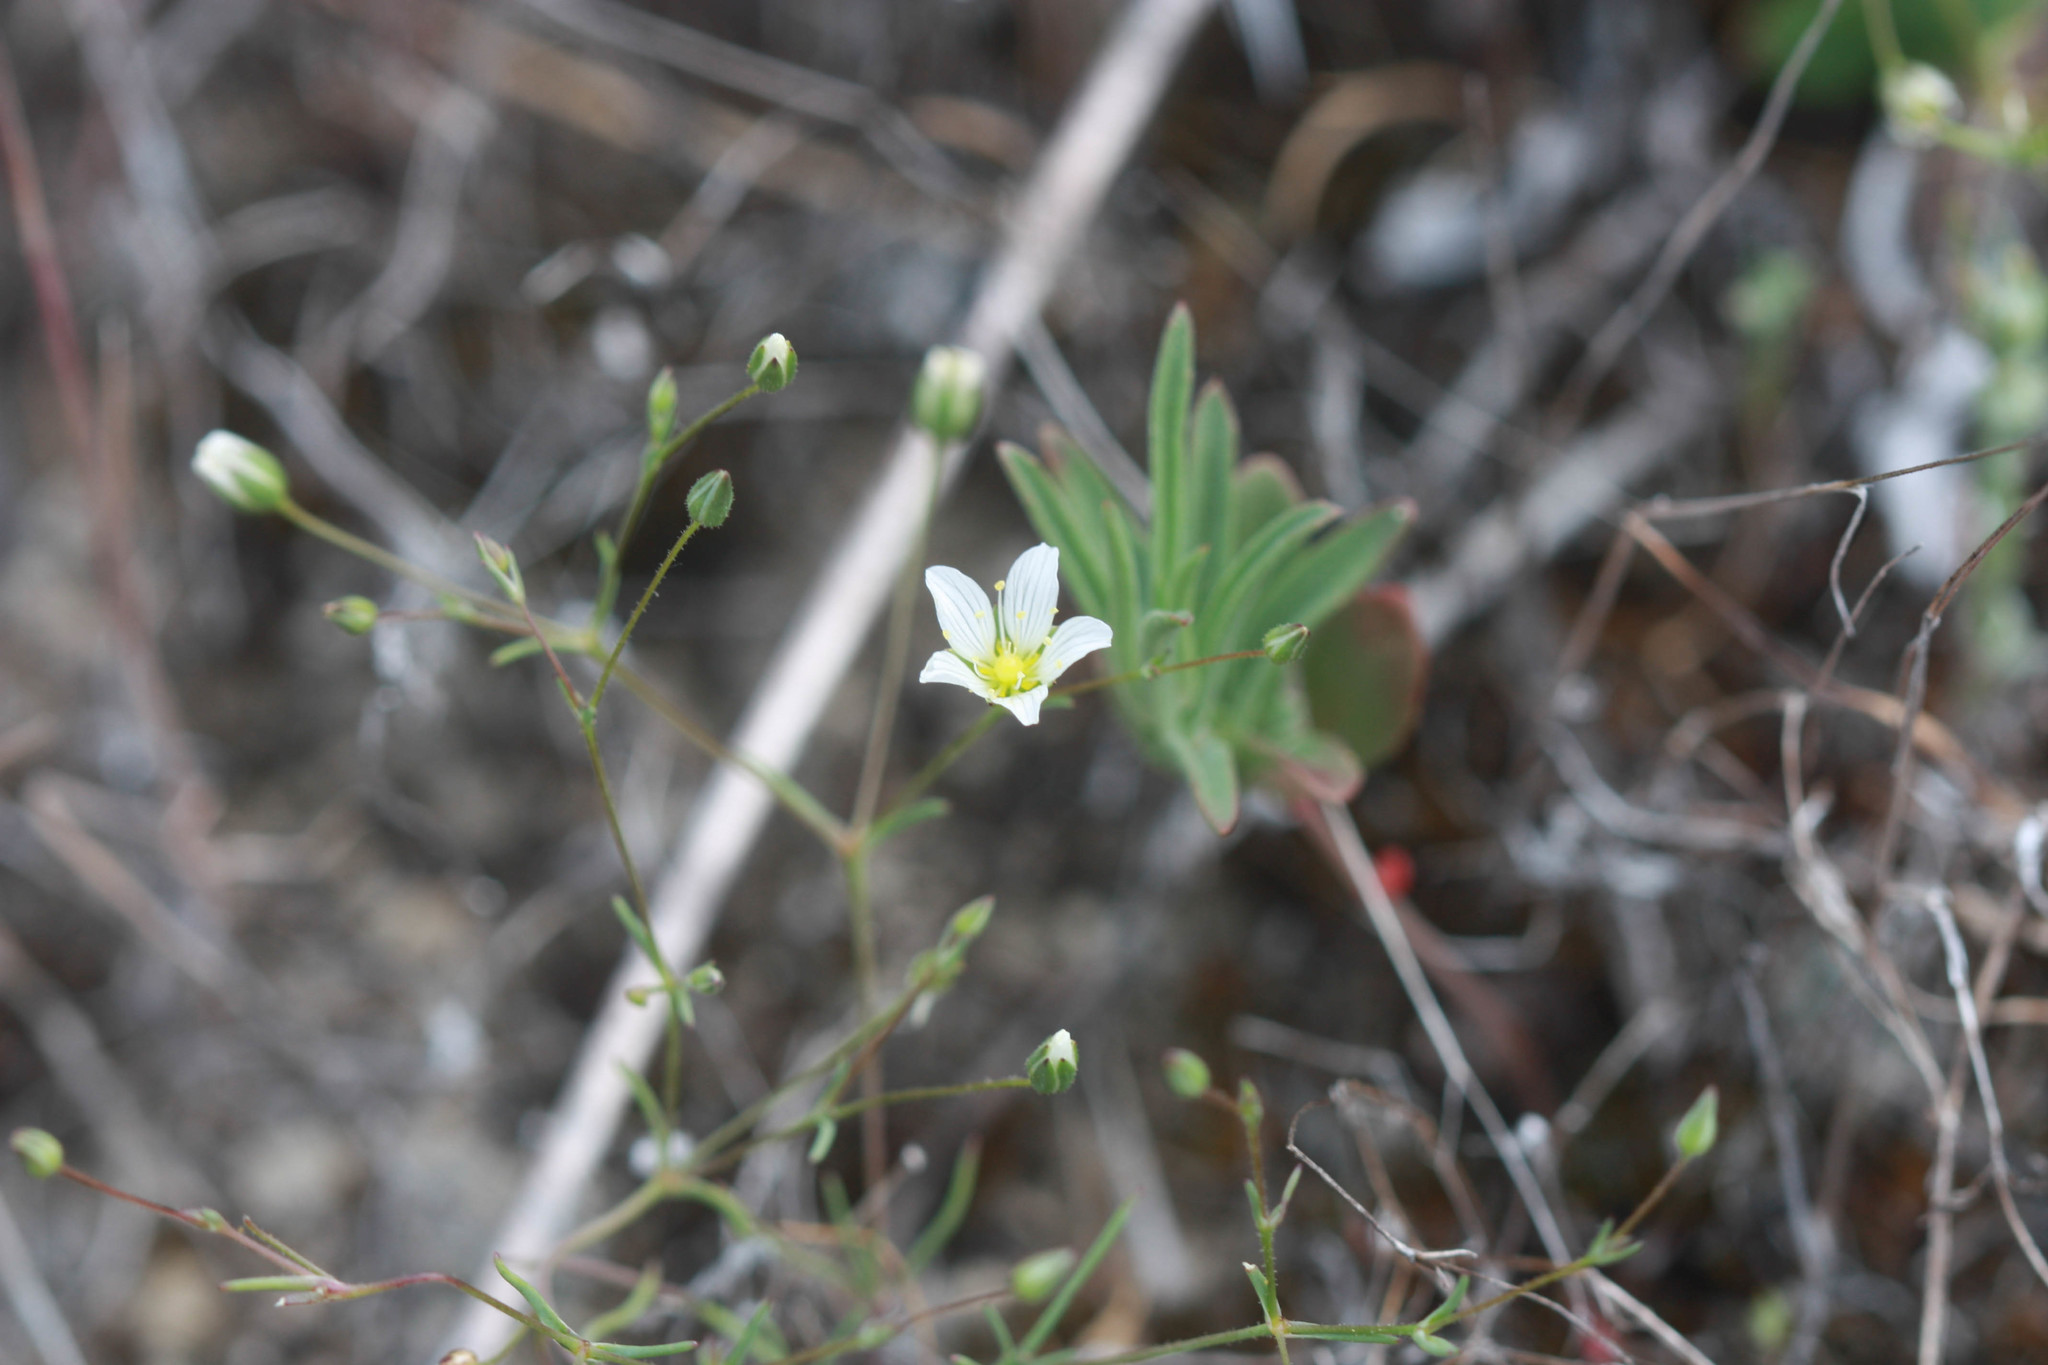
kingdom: Plantae
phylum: Tracheophyta
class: Magnoliopsida
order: Caryophyllales
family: Caryophyllaceae
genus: Sabulina
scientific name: Sabulina douglasii
